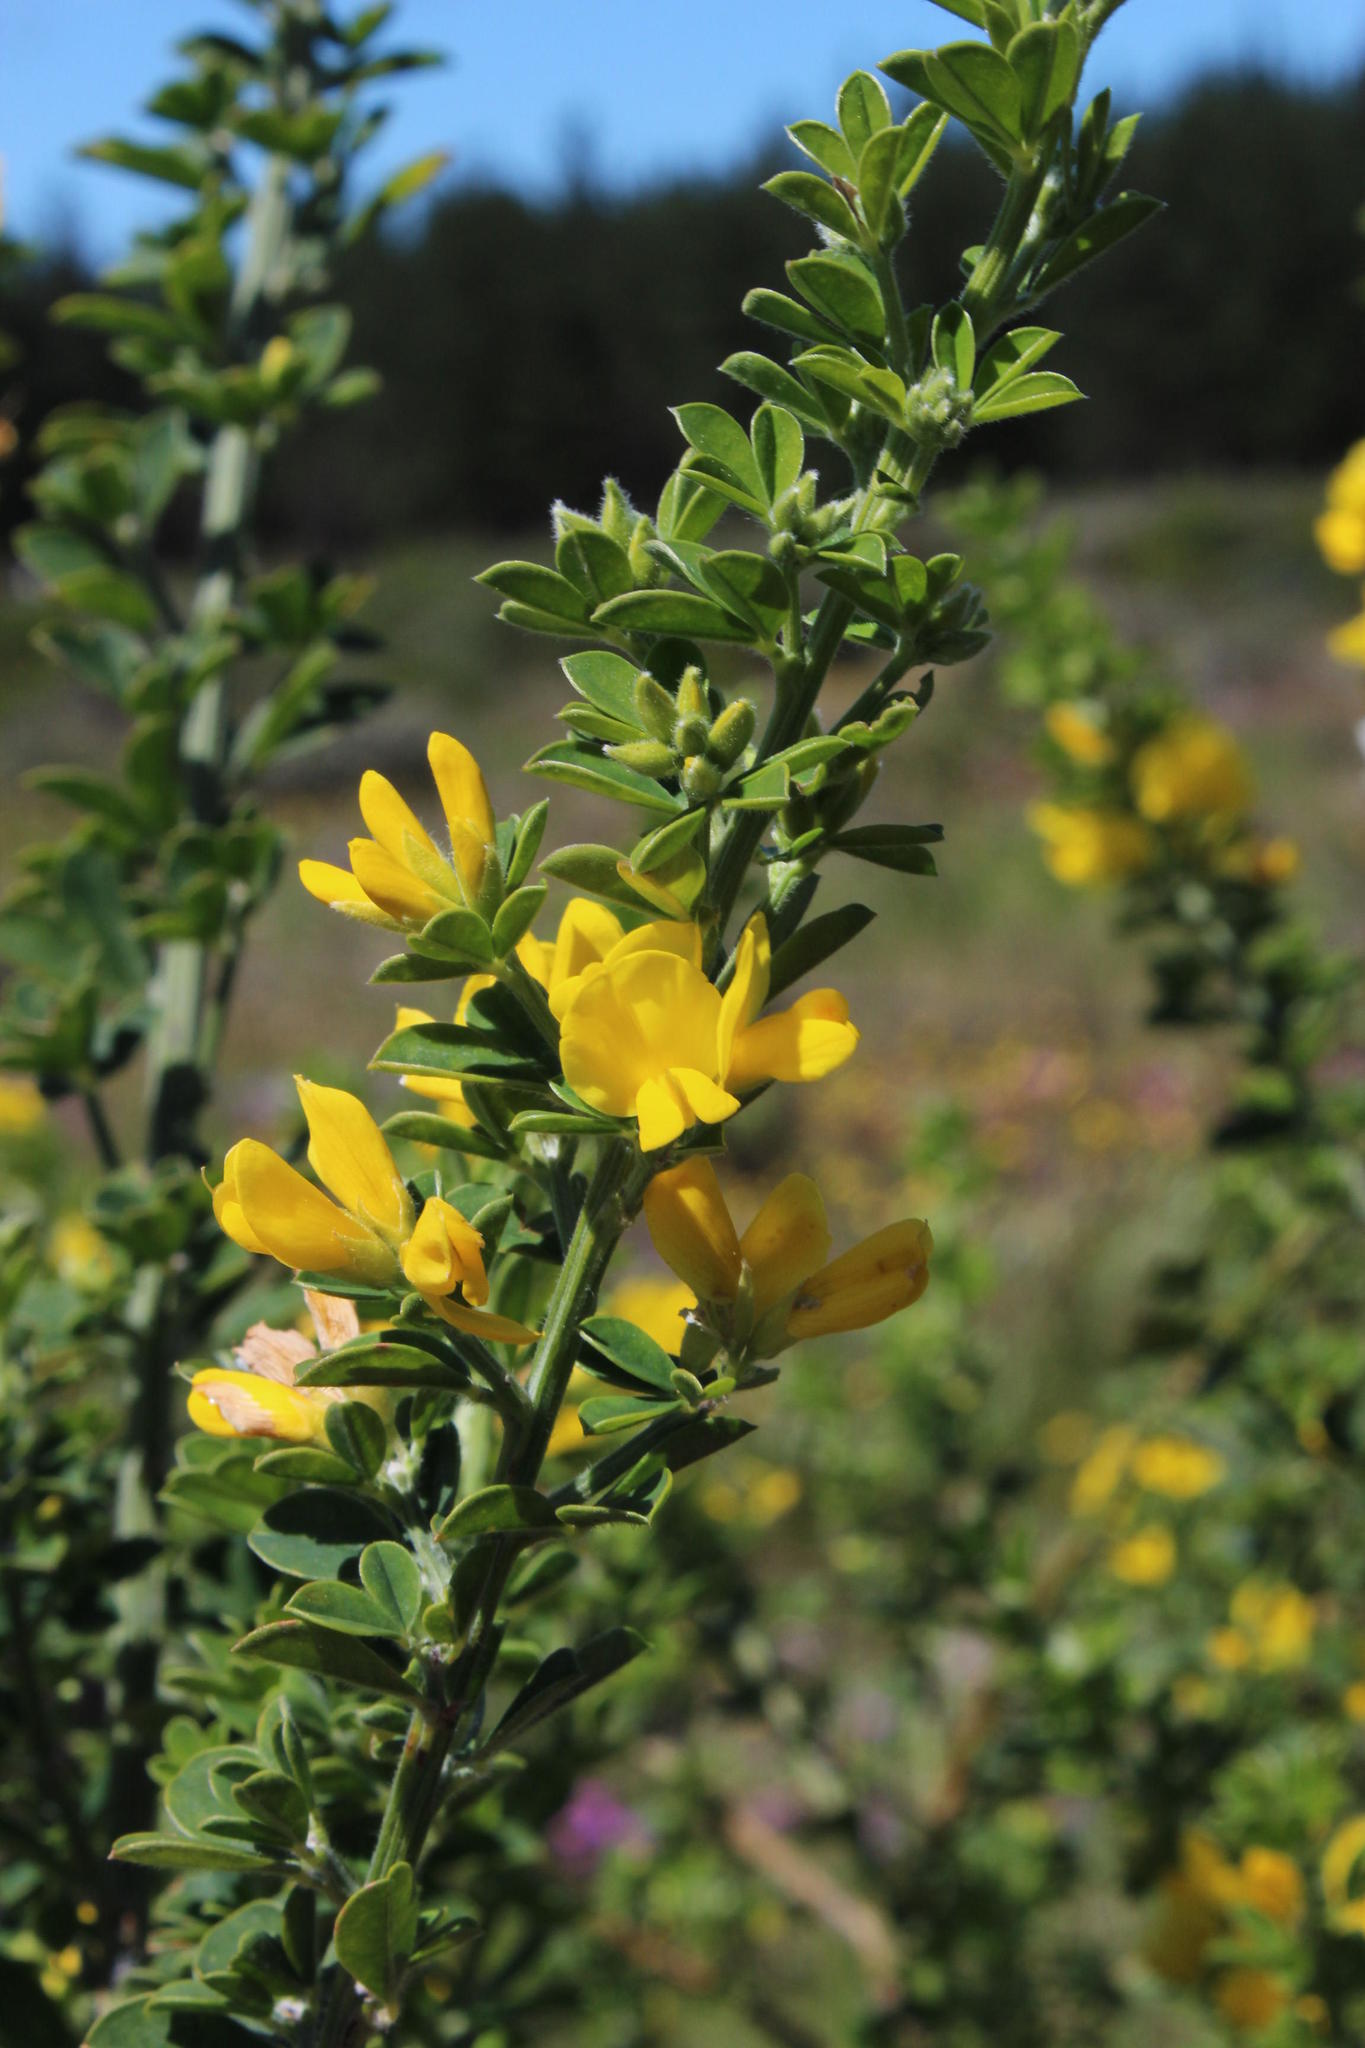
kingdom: Plantae
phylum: Tracheophyta
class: Magnoliopsida
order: Fabales
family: Fabaceae
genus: Genista
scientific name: Genista monspessulana
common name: Montpellier broom
